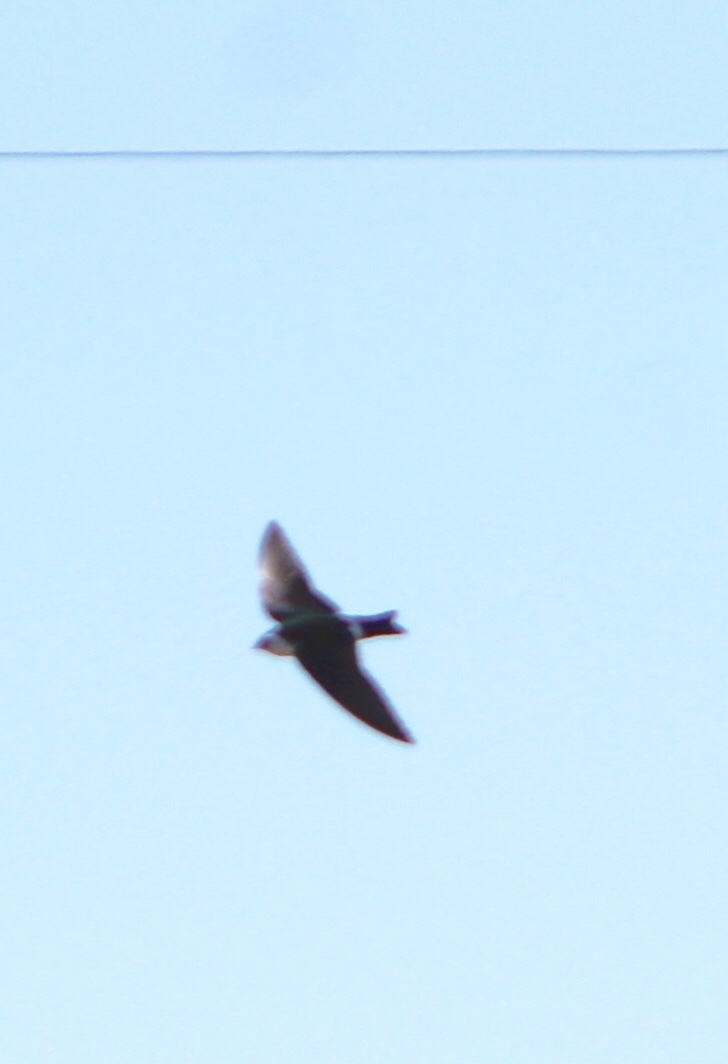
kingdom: Animalia
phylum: Chordata
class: Aves
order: Passeriformes
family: Hirundinidae
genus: Tachycineta
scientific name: Tachycineta thalassina
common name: Violet-green swallow
